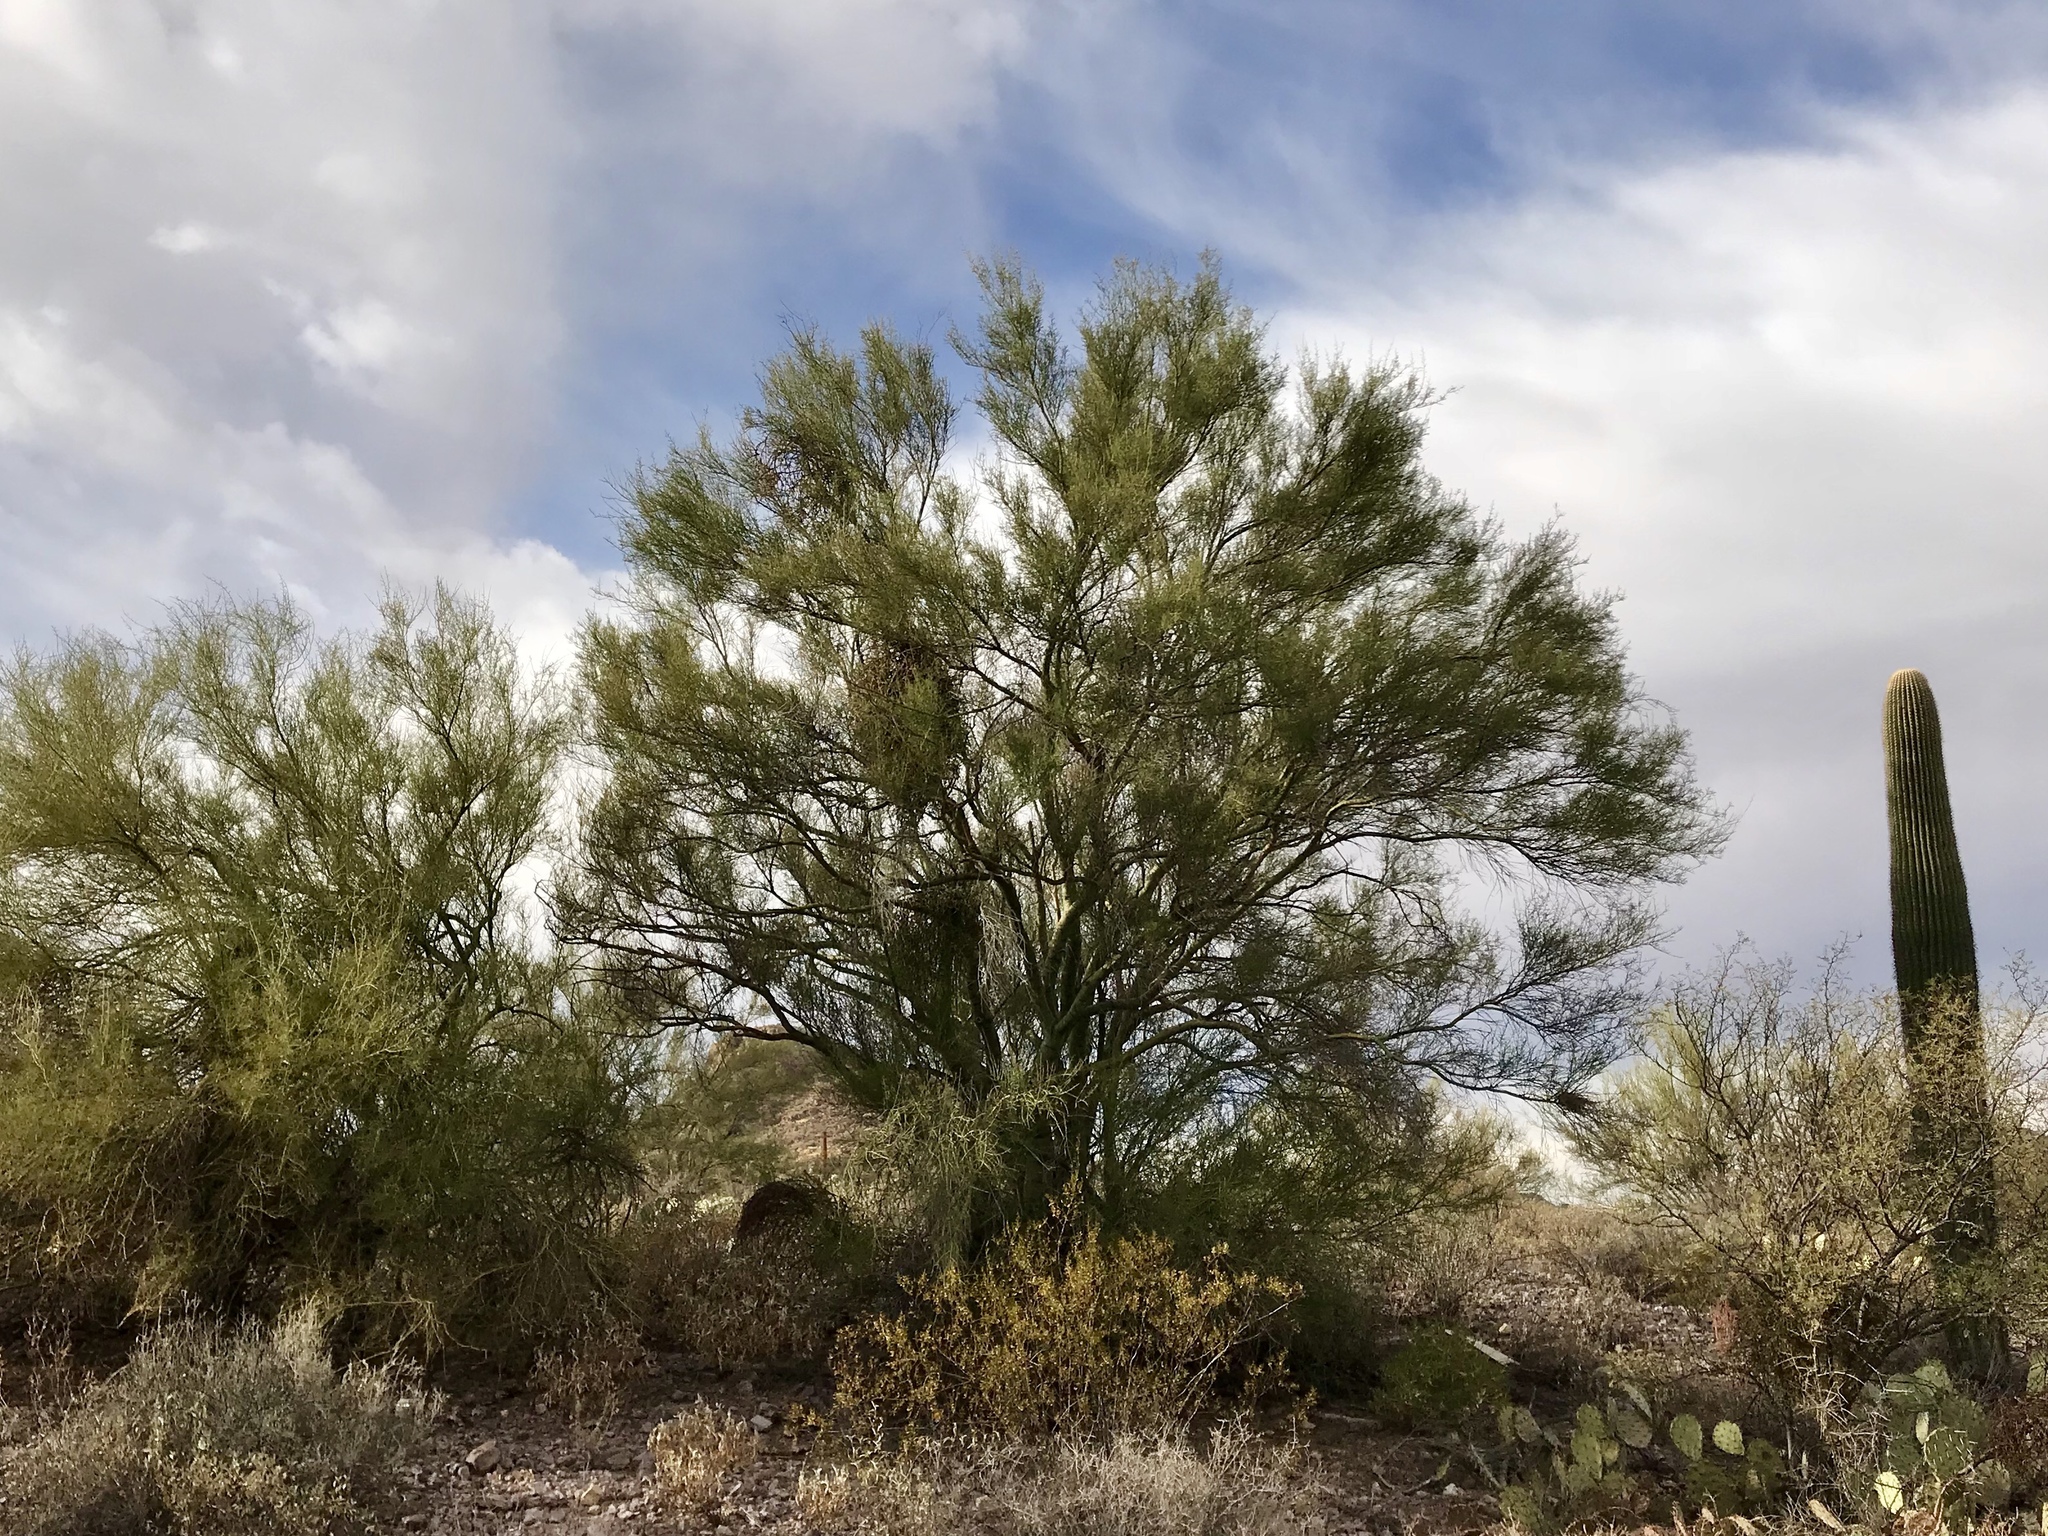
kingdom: Plantae
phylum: Tracheophyta
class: Magnoliopsida
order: Fabales
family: Fabaceae
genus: Parkinsonia
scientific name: Parkinsonia microphylla
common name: Yellow paloverde
